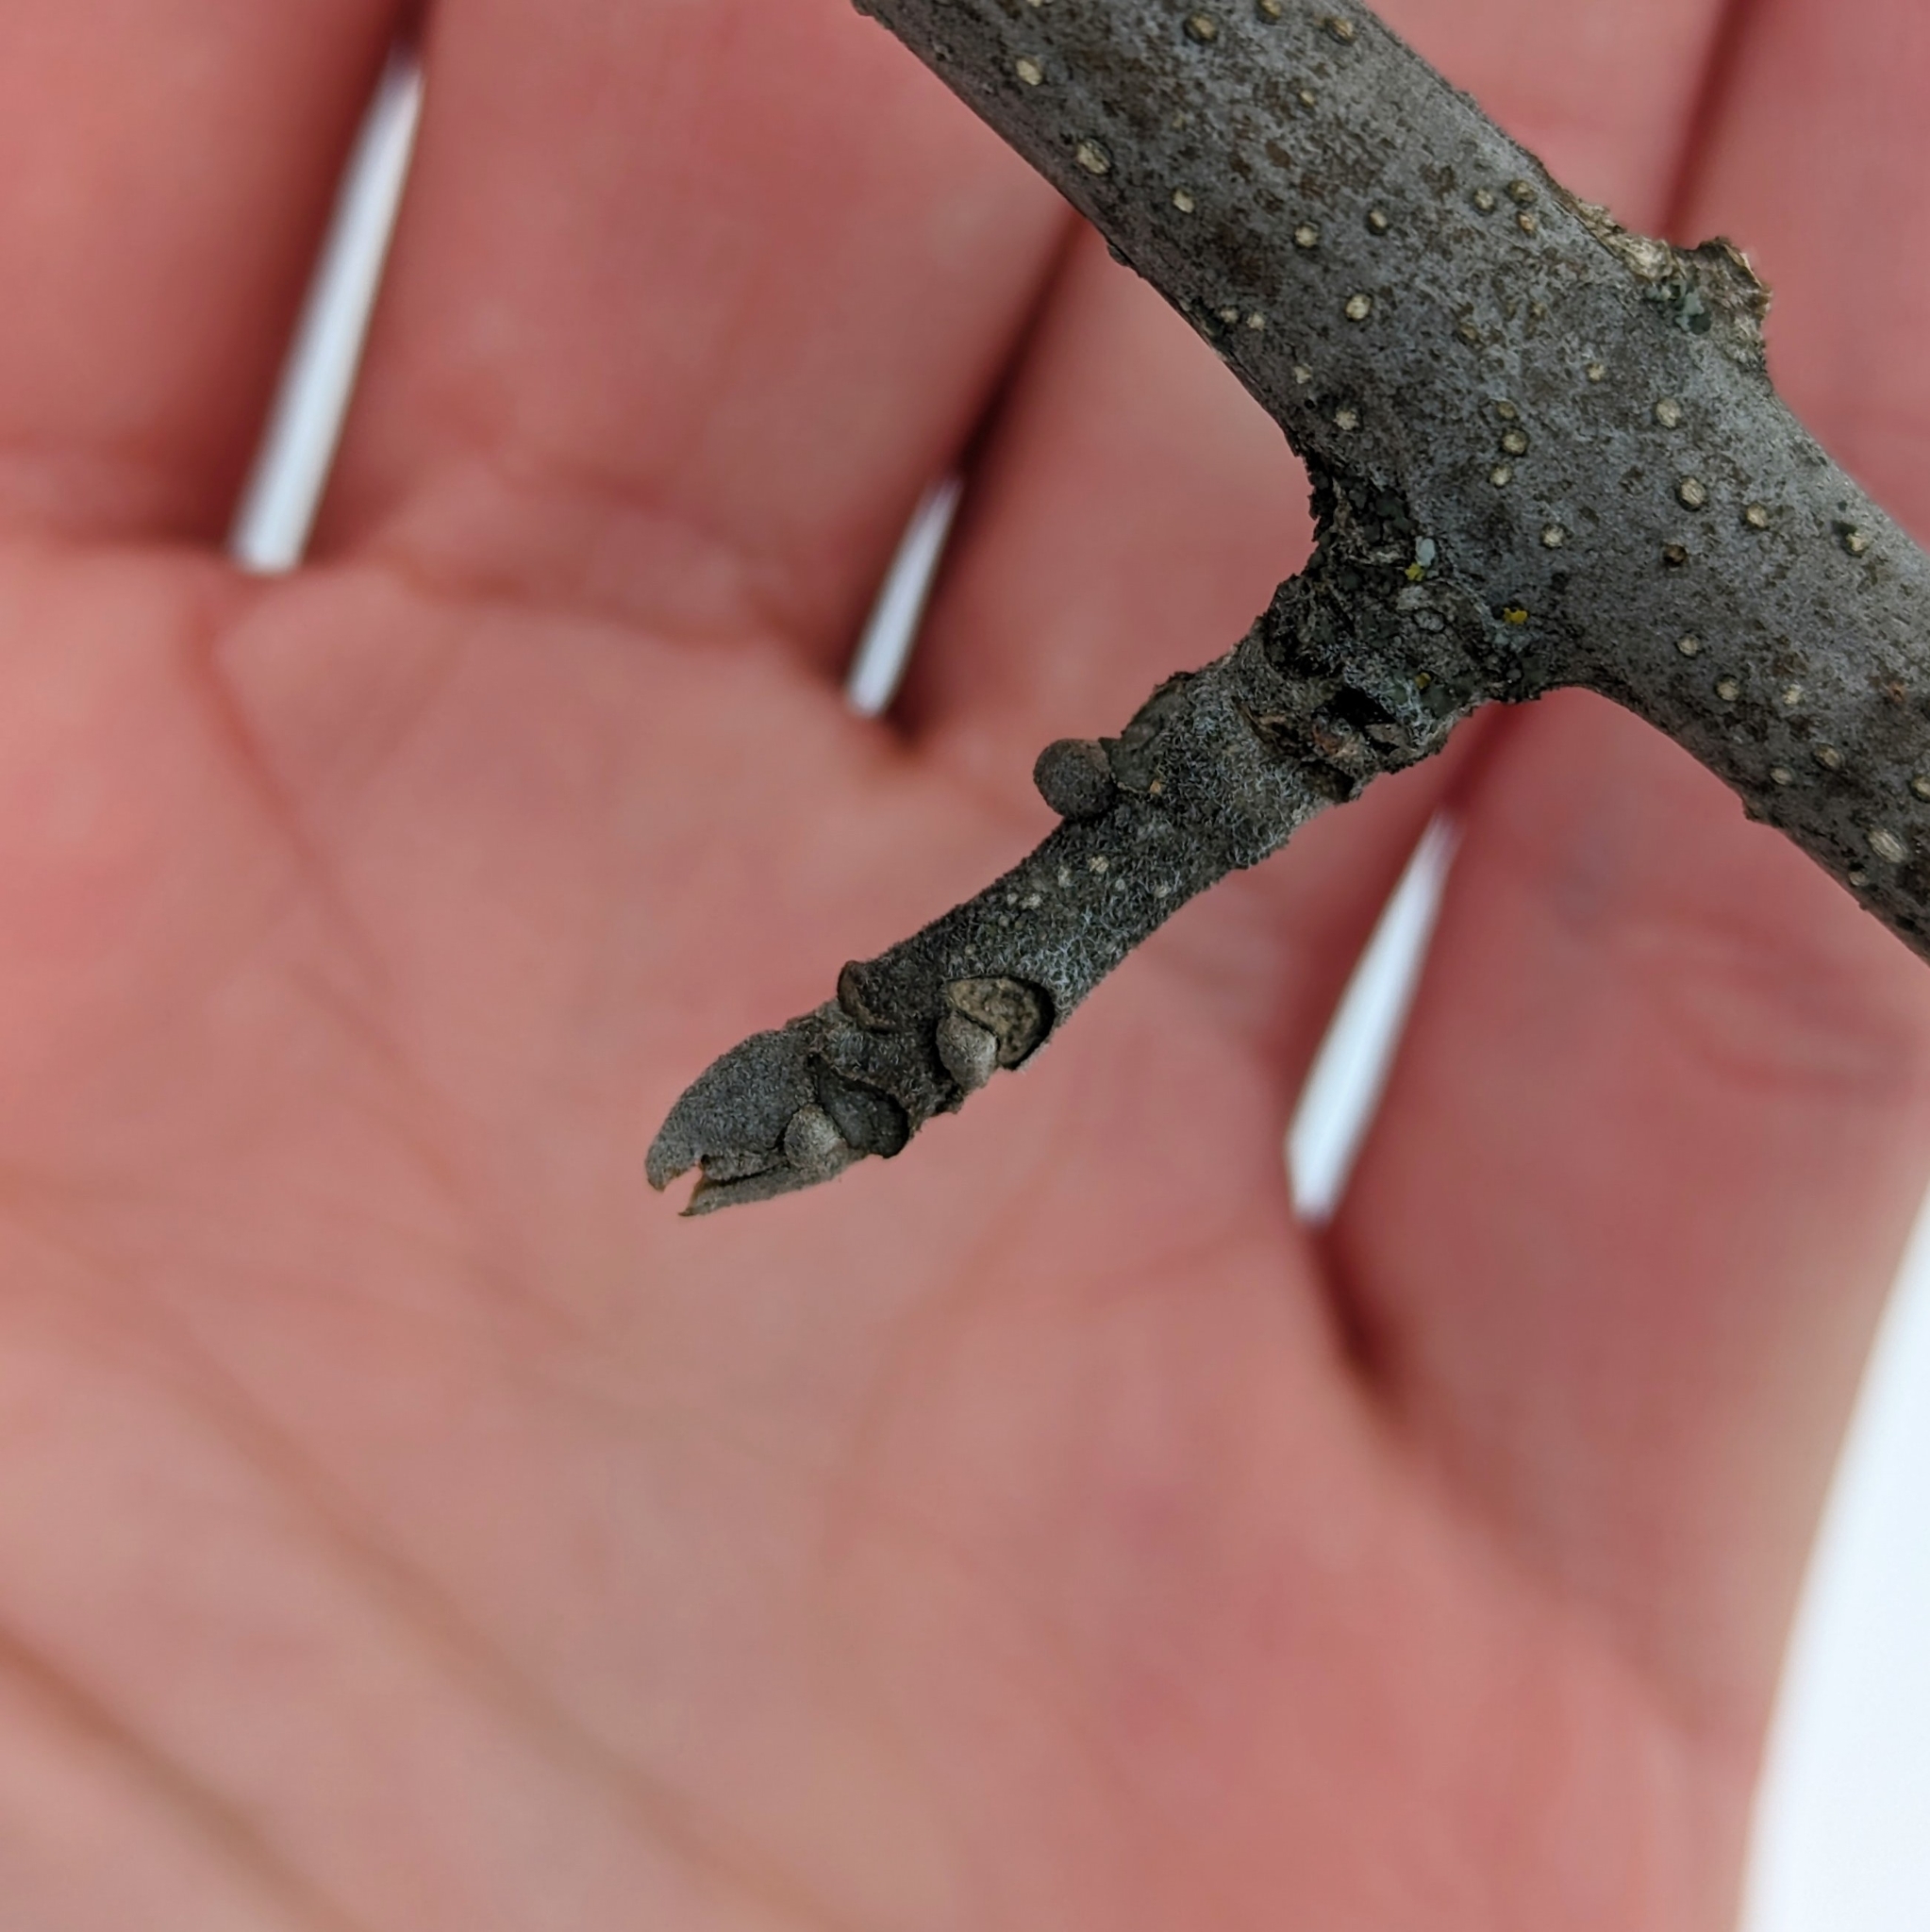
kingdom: Plantae
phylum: Tracheophyta
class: Magnoliopsida
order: Lamiales
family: Oleaceae
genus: Fraxinus
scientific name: Fraxinus pennsylvanica
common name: Green ash
